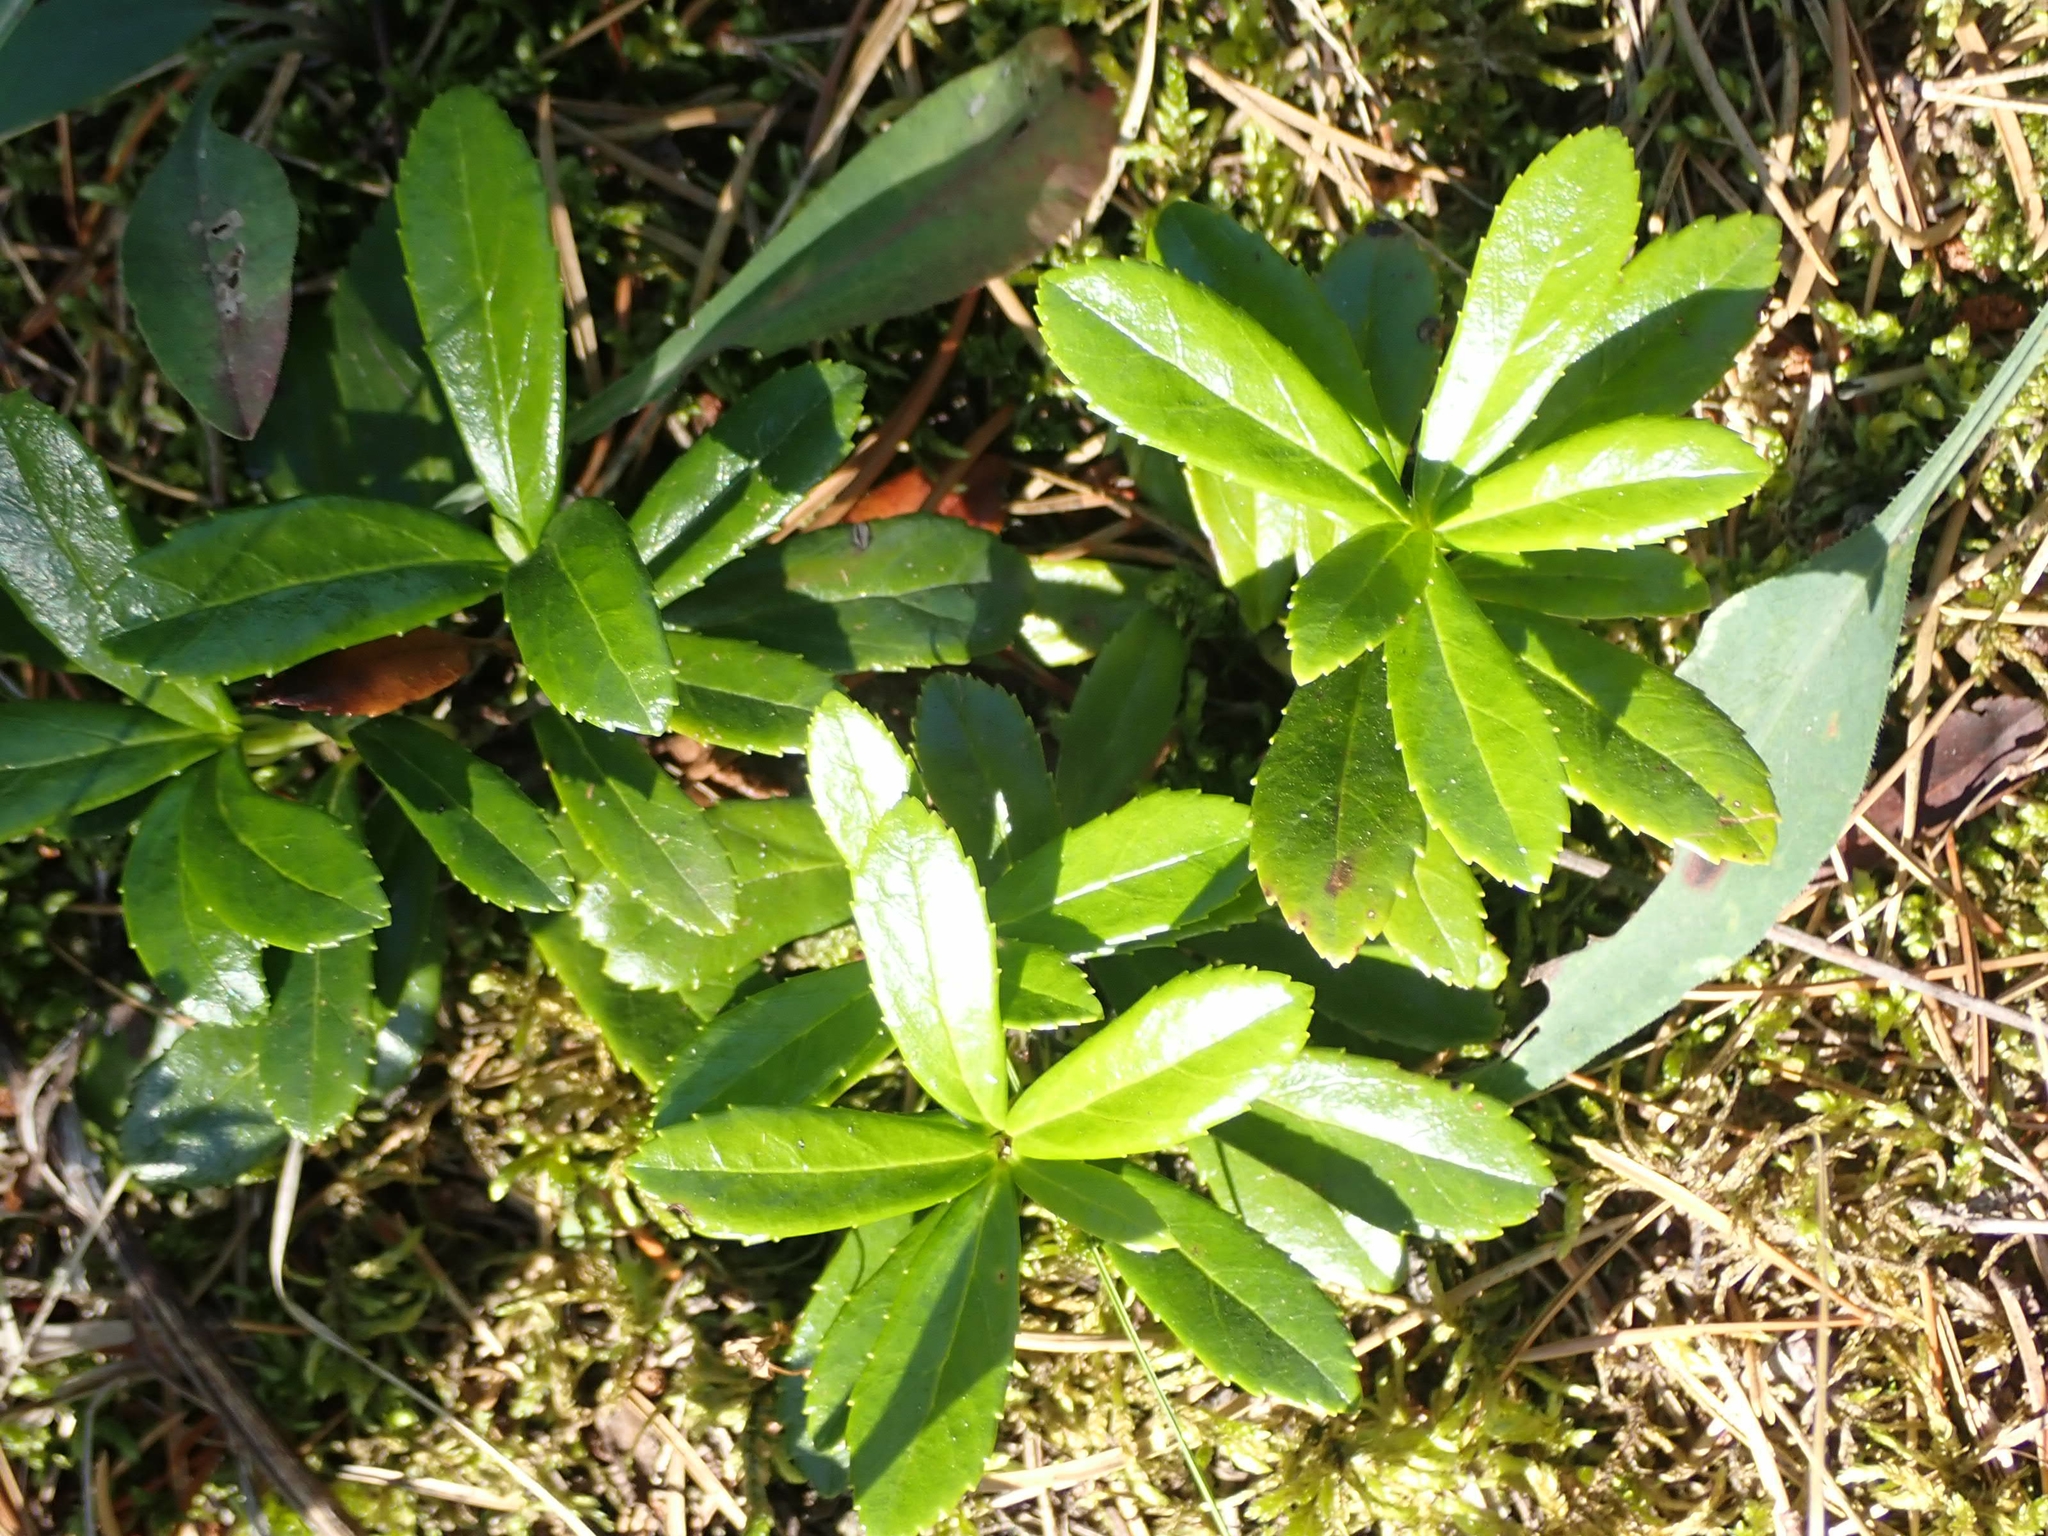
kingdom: Plantae
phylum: Tracheophyta
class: Magnoliopsida
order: Ericales
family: Ericaceae
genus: Chimaphila
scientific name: Chimaphila umbellata
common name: Pipsissewa
